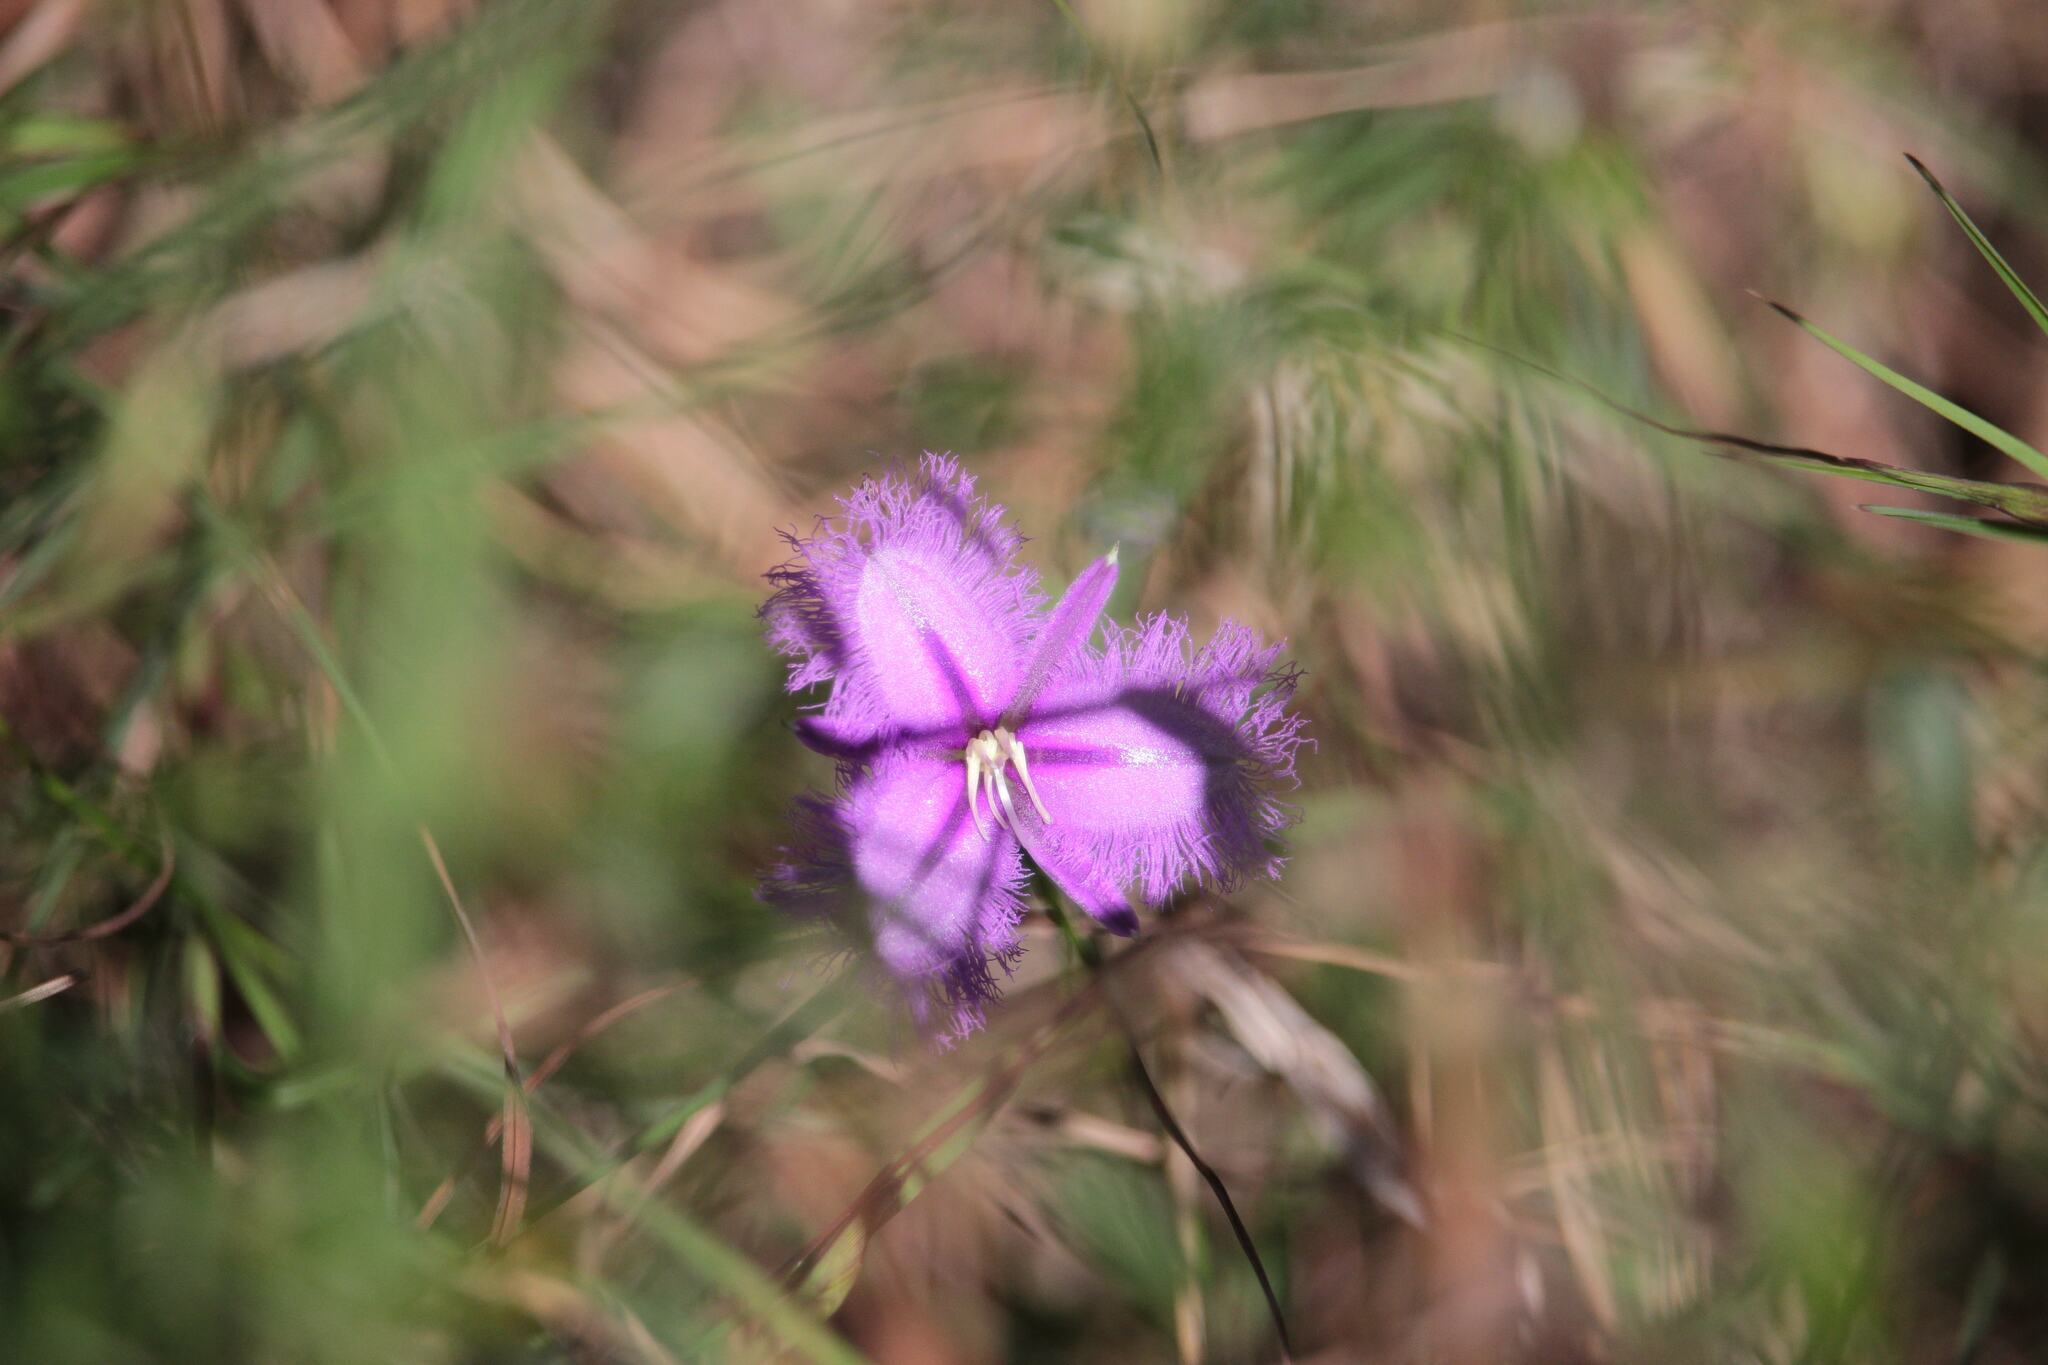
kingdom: Plantae
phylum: Tracheophyta
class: Liliopsida
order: Asparagales
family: Asparagaceae
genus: Thysanotus
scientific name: Thysanotus tuberosus
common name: Common fringed-lily
